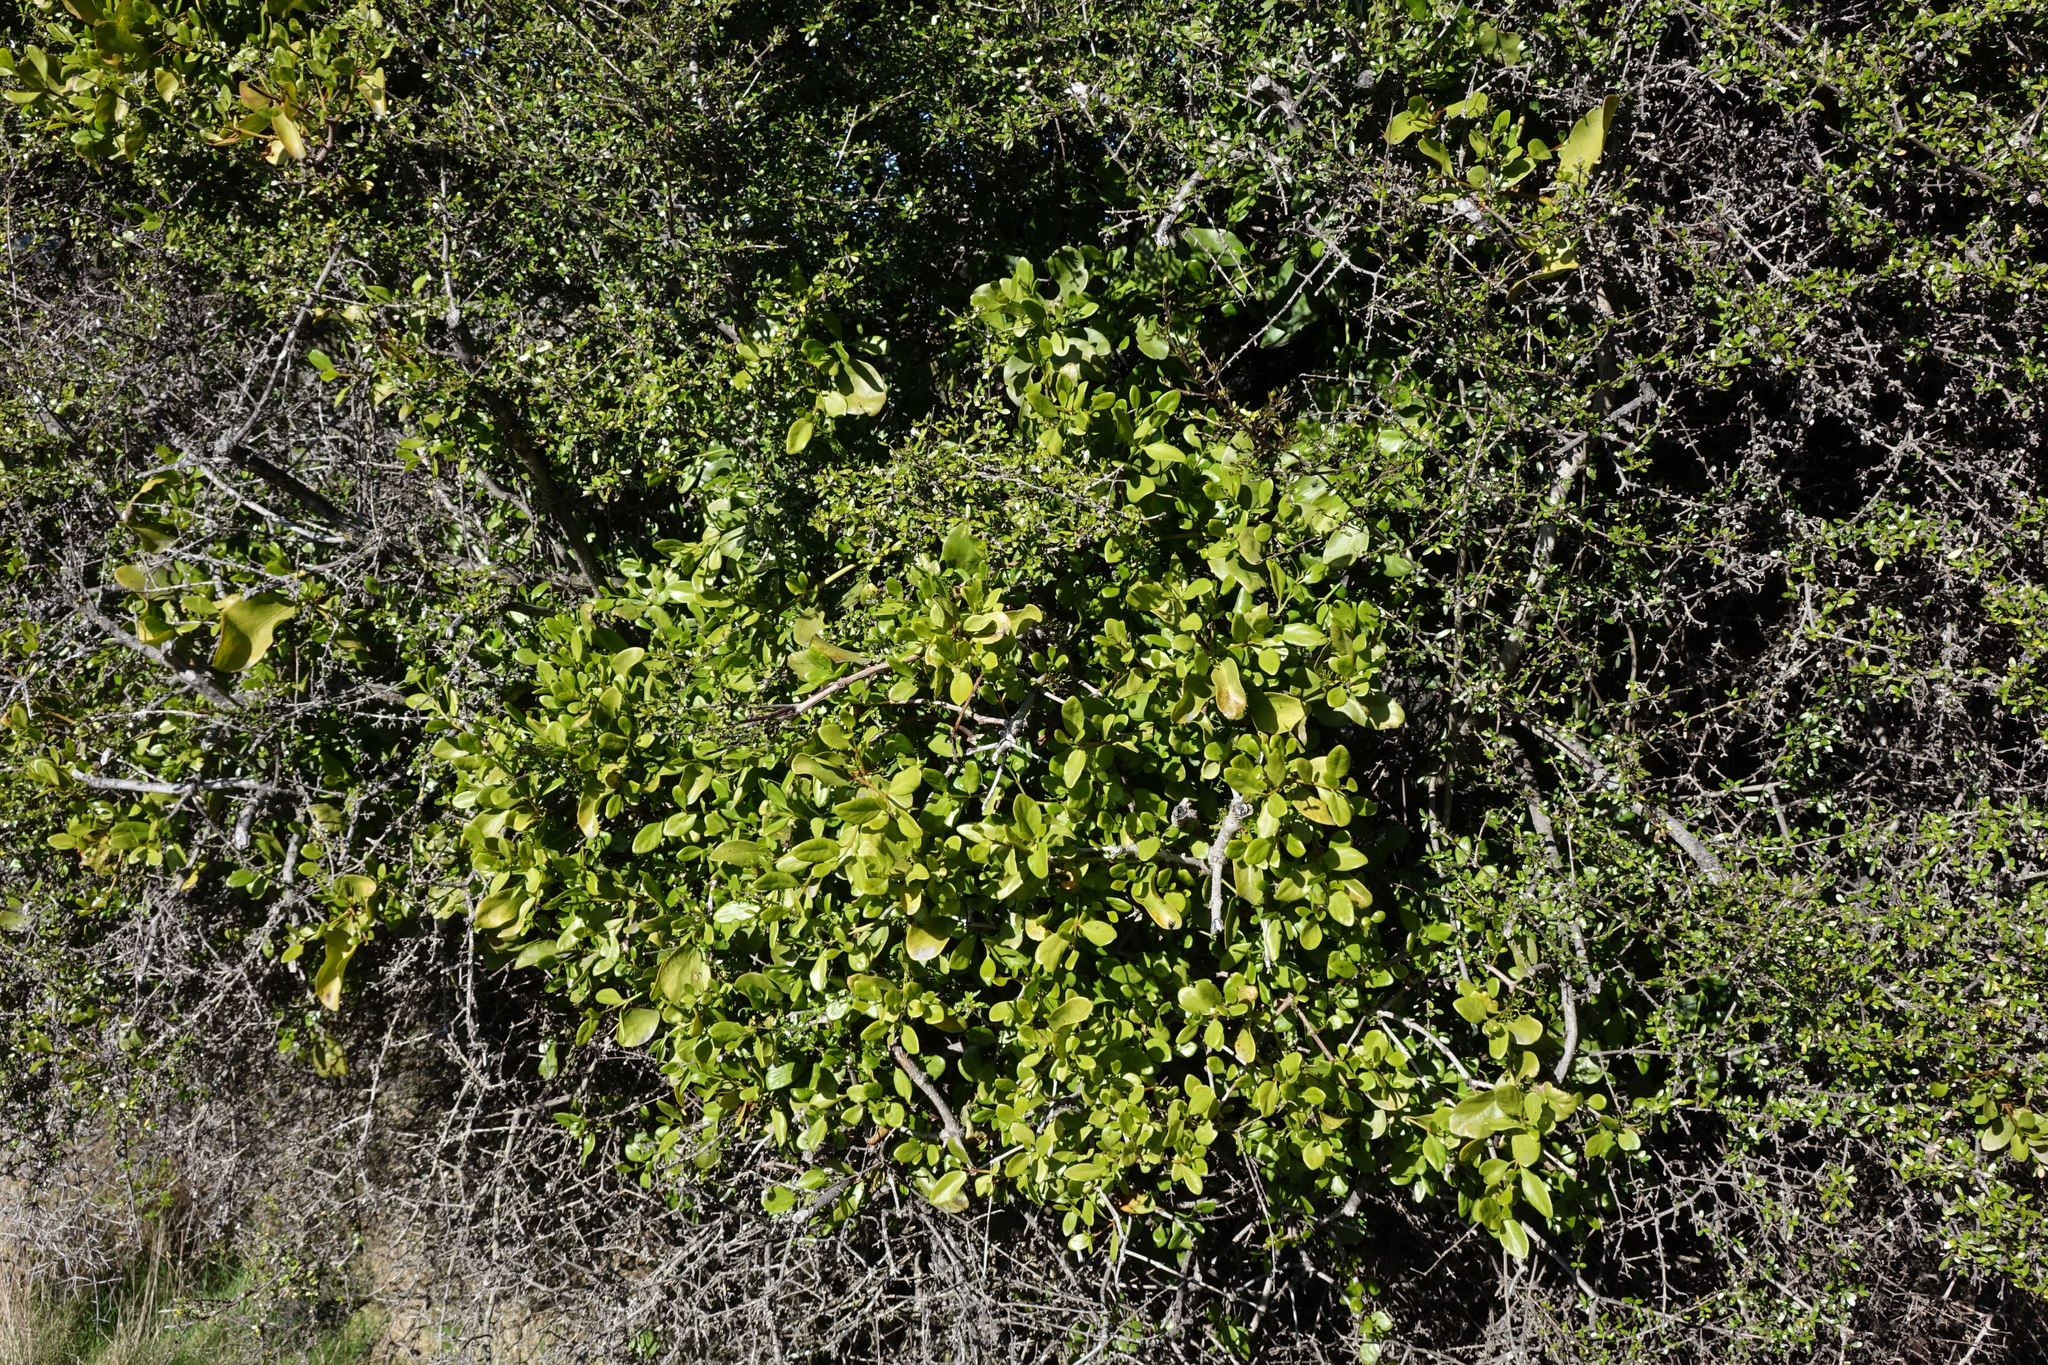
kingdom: Plantae
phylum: Tracheophyta
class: Magnoliopsida
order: Santalales
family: Loranthaceae
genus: Ileostylus
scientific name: Ileostylus micranthus
